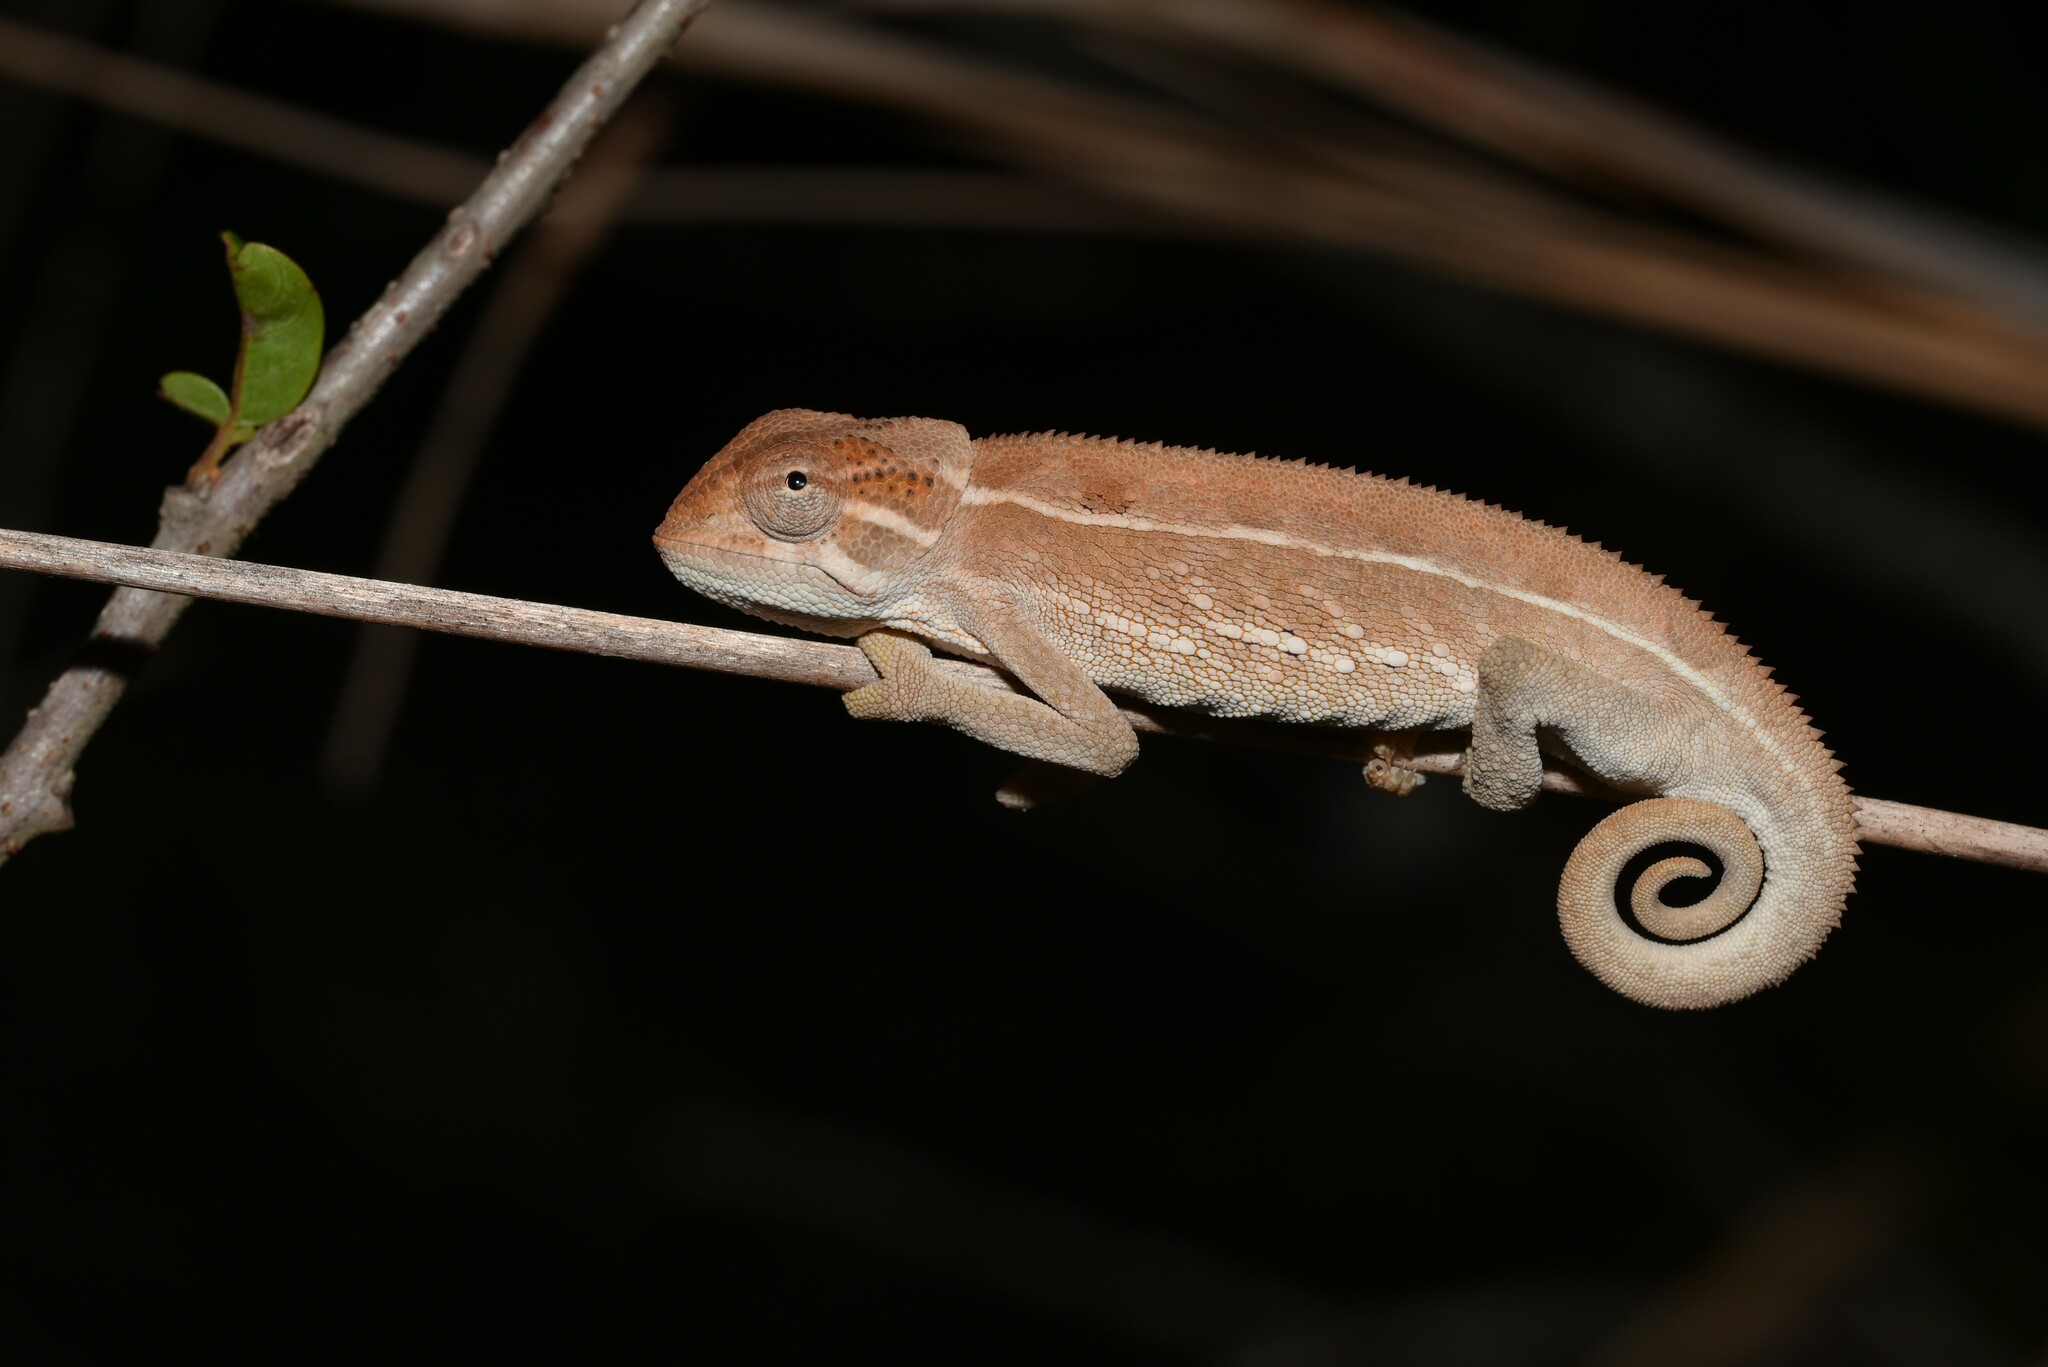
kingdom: Animalia
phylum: Chordata
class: Squamata
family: Chamaeleonidae
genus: Trioceros
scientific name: Trioceros goetzei
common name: Ilolo chameleon
